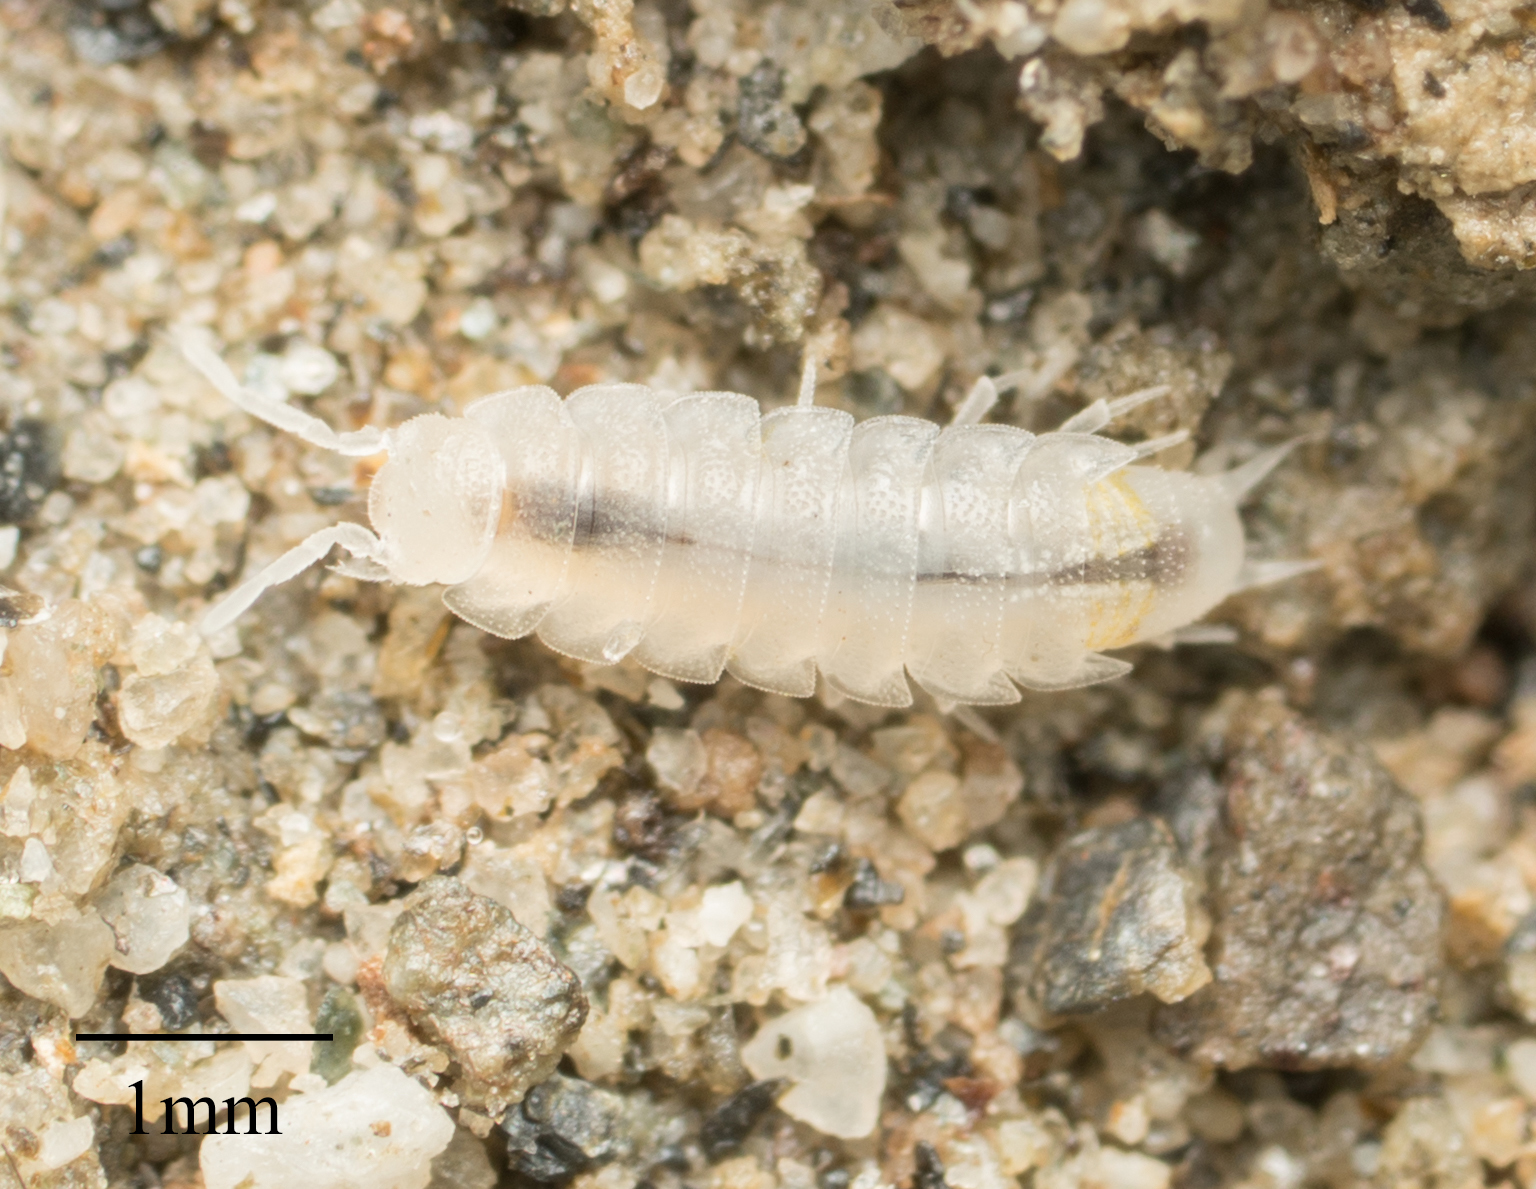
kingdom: Animalia
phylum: Arthropoda
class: Malacostraca
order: Isopoda
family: Trichoniscidae
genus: Brackenridgia
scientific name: Brackenridgia heroldi
